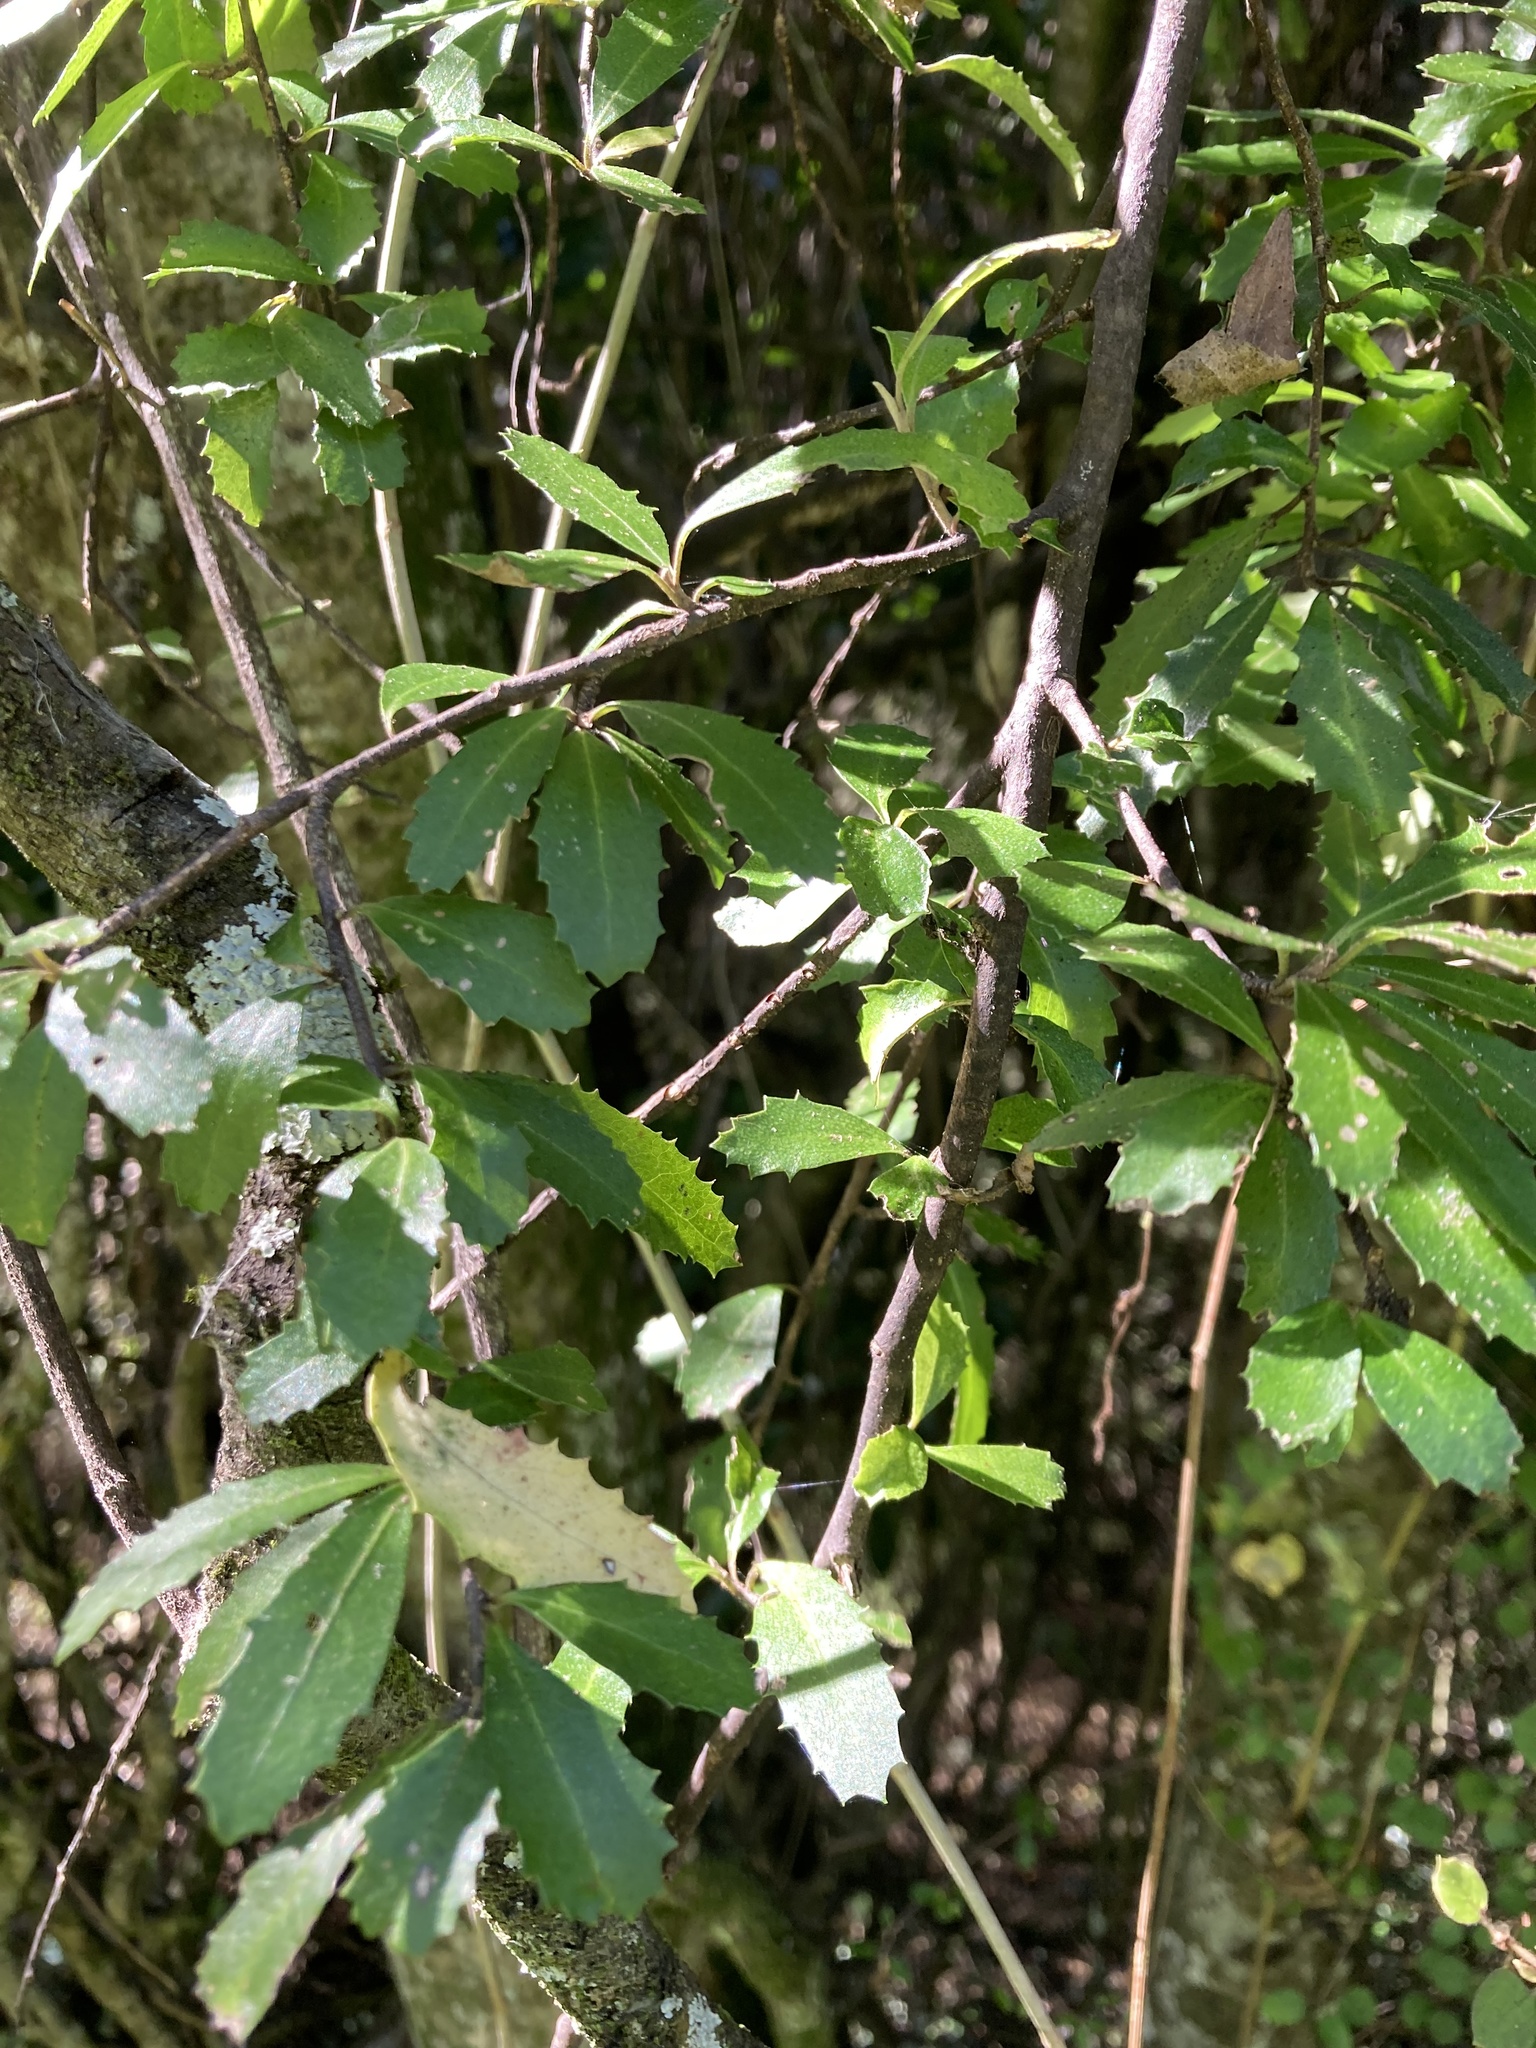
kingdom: Plantae
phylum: Tracheophyta
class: Magnoliopsida
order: Malvales
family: Malvaceae
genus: Hoheria
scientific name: Hoheria angustifolia
